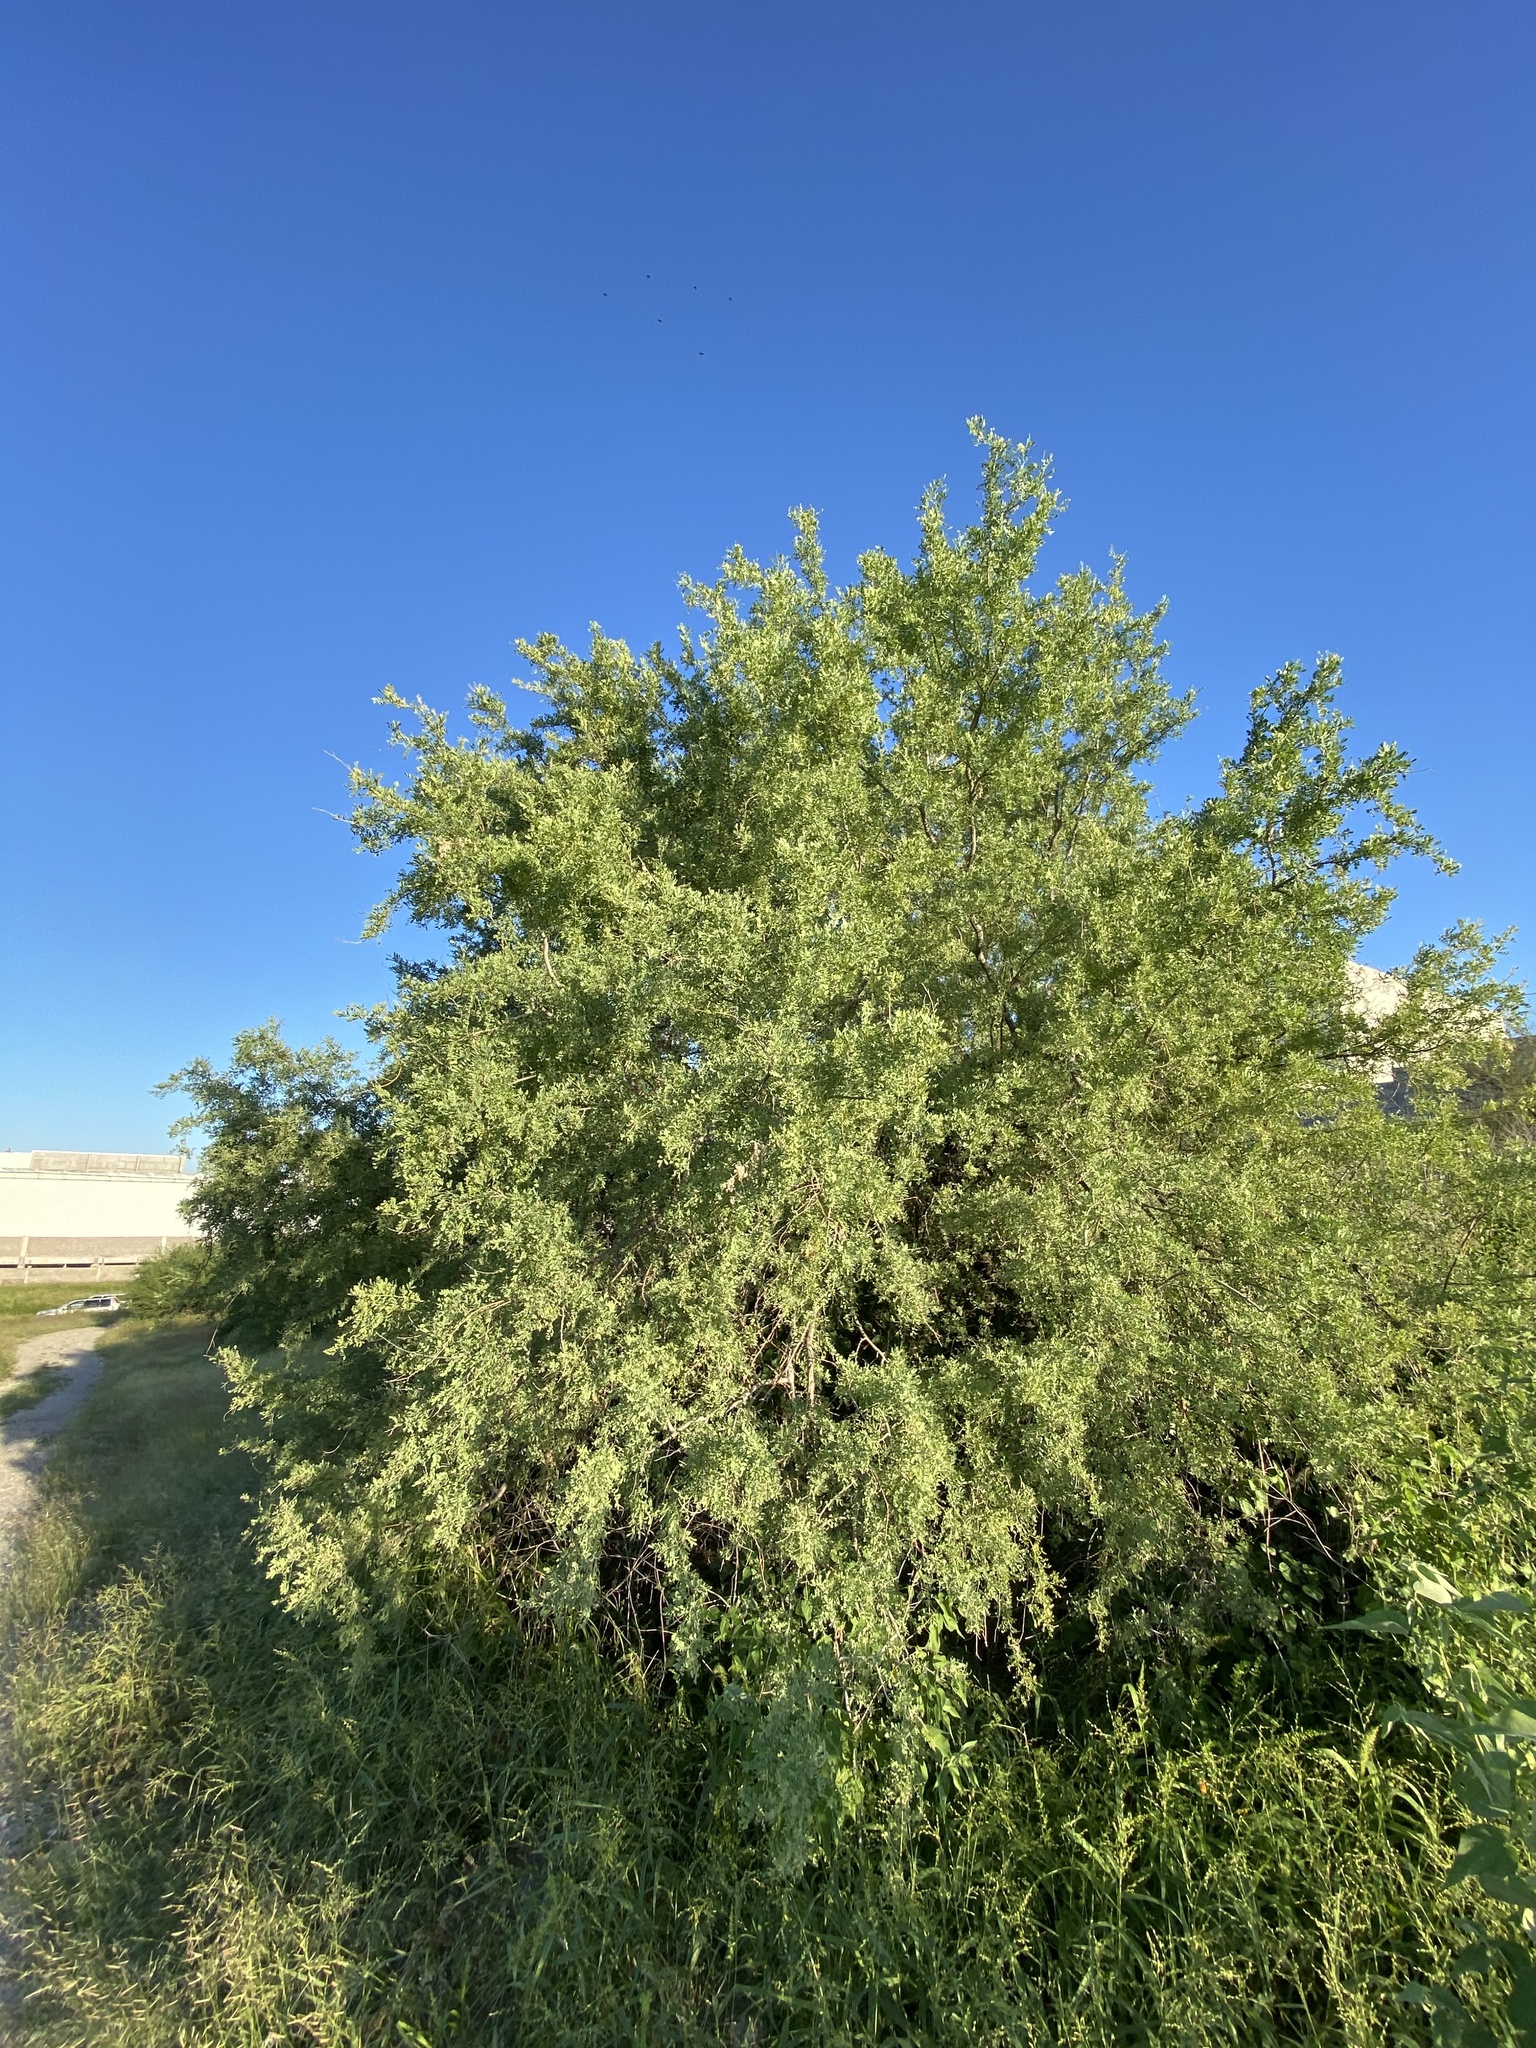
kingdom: Plantae
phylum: Tracheophyta
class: Magnoliopsida
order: Fabales
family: Fabaceae
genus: Olneya
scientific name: Olneya tesota
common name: Desert ironwood
